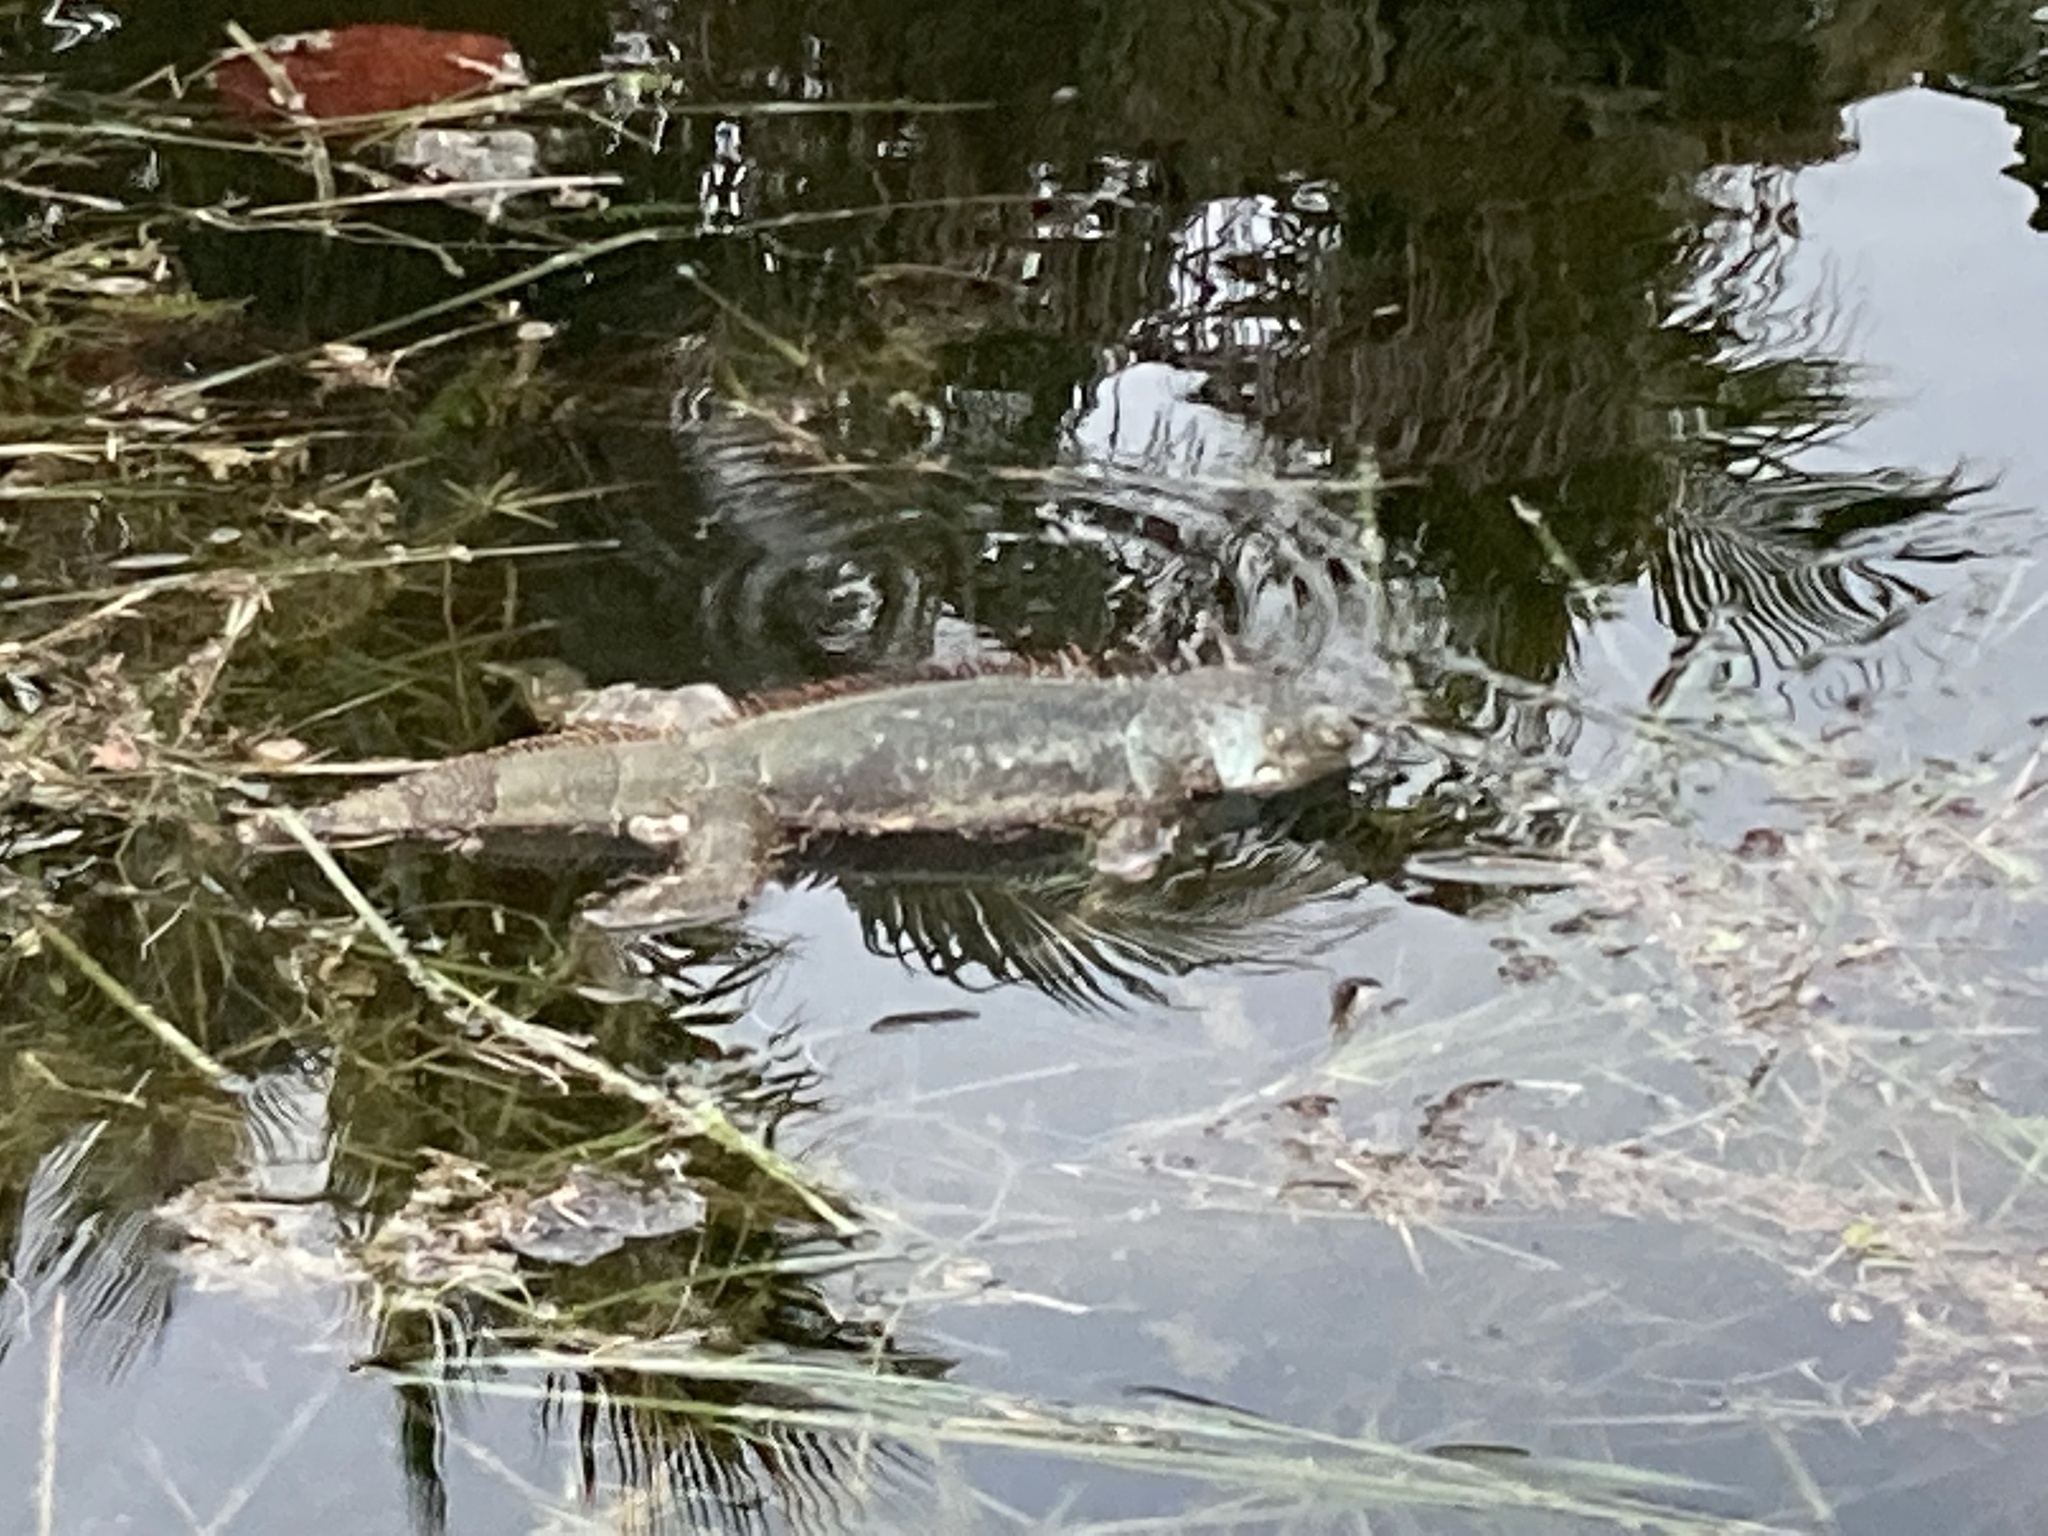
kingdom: Animalia
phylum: Chordata
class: Squamata
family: Iguanidae
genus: Iguana
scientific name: Iguana iguana
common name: Green iguana
